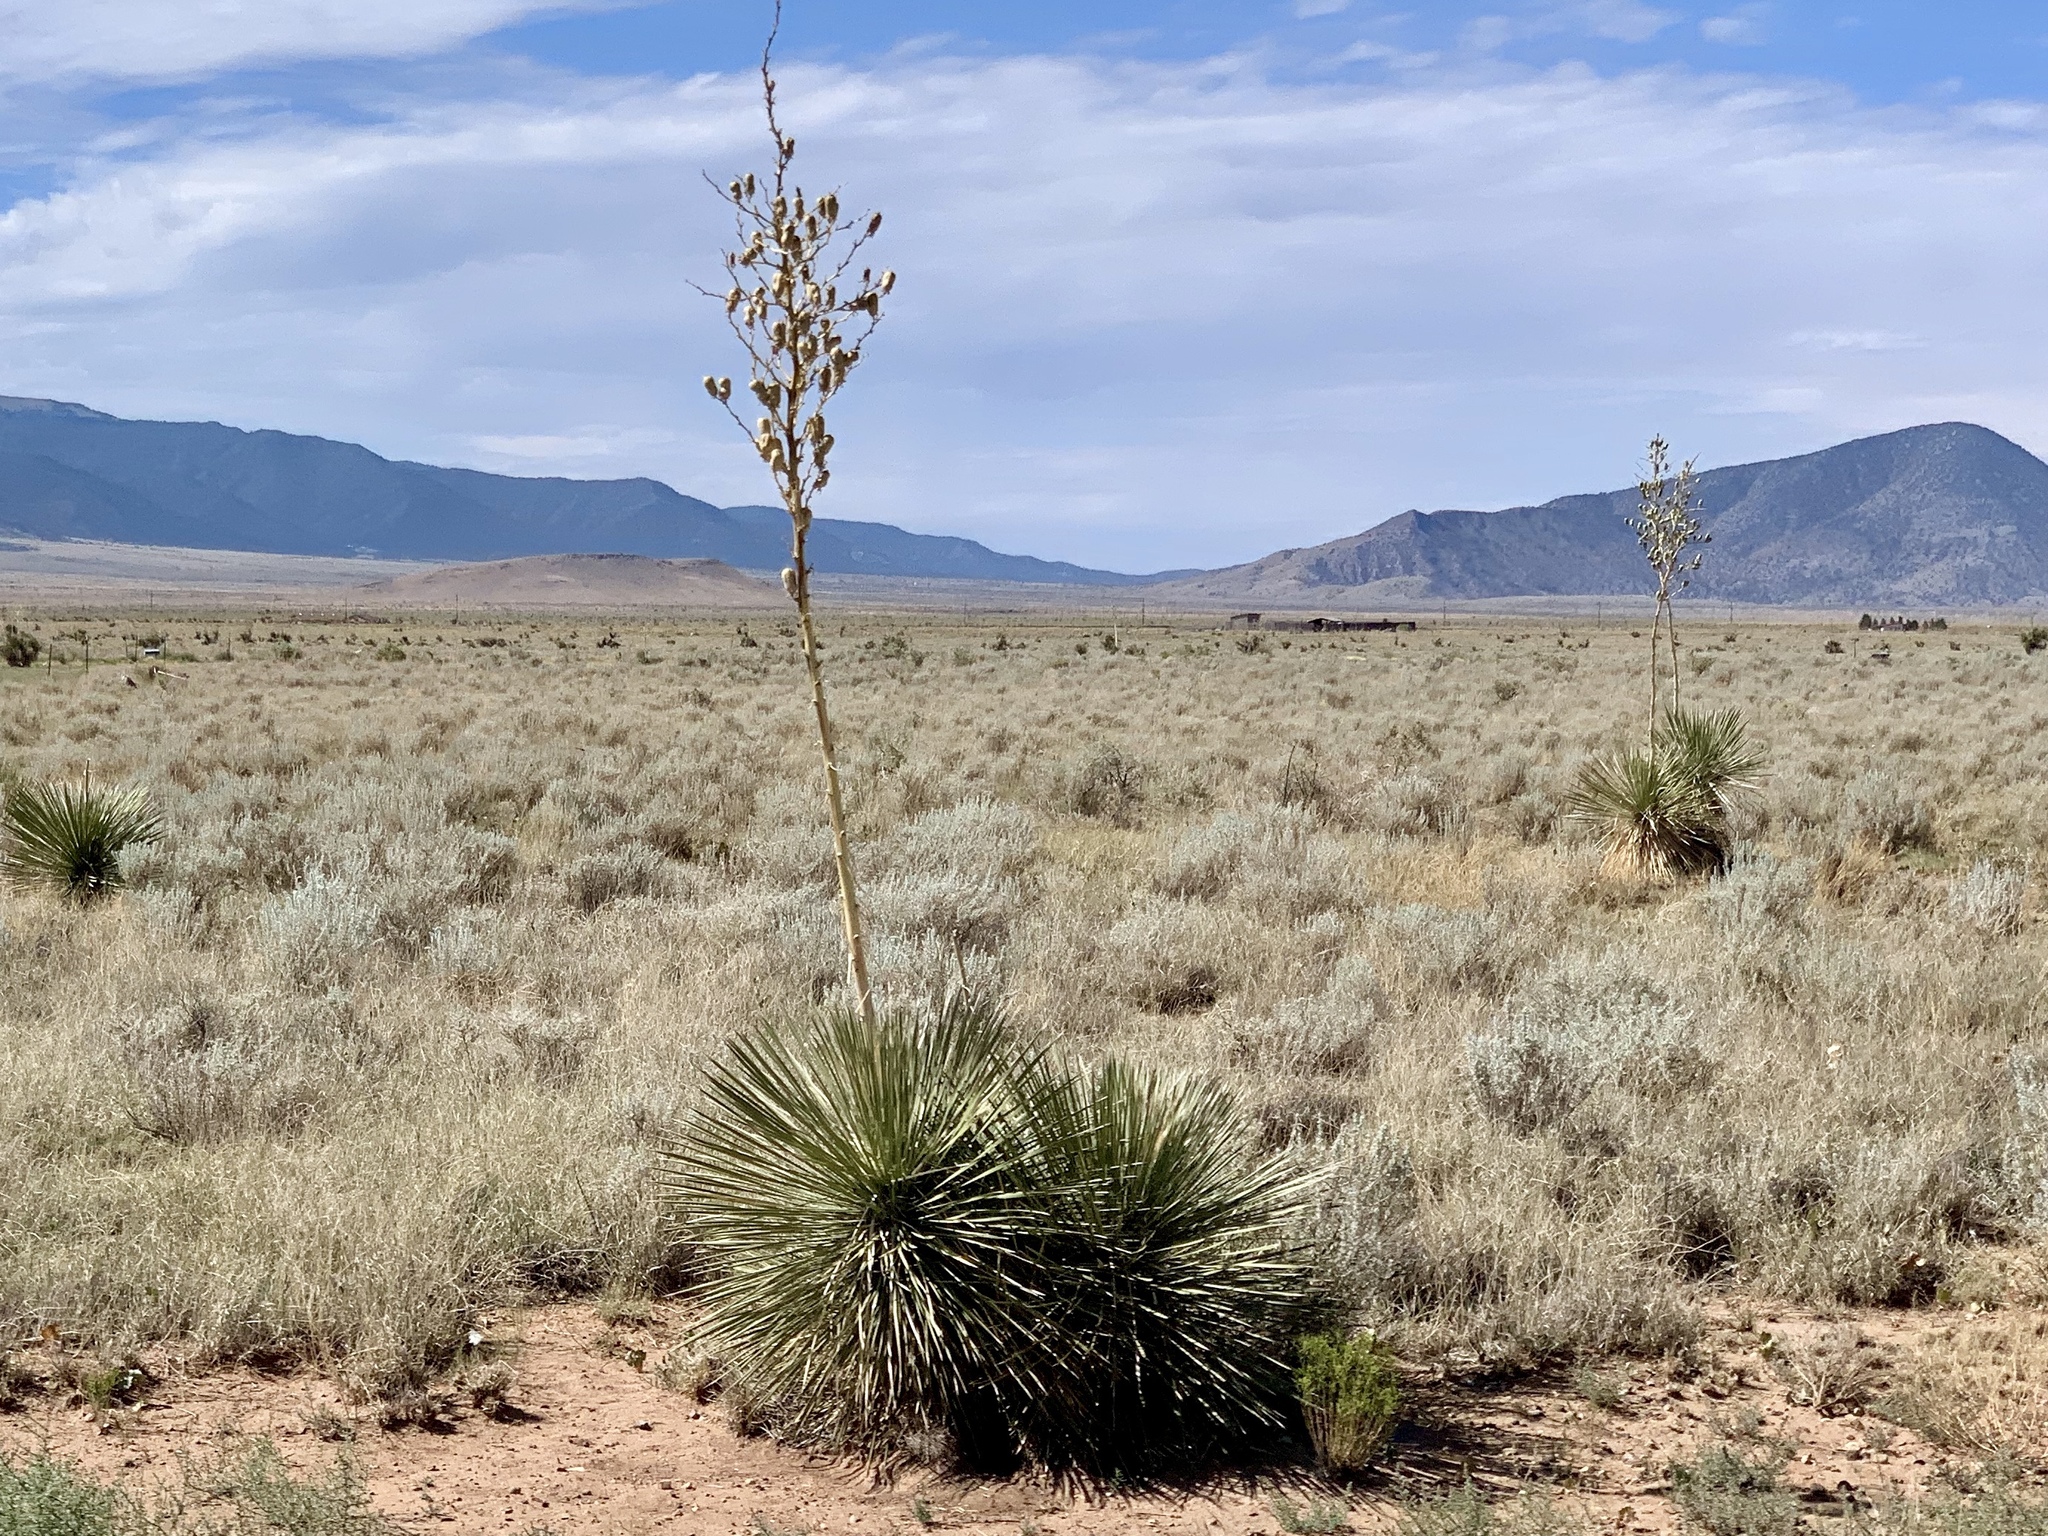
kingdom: Plantae
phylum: Tracheophyta
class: Liliopsida
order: Asparagales
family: Asparagaceae
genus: Yucca
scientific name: Yucca elata
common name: Palmella
